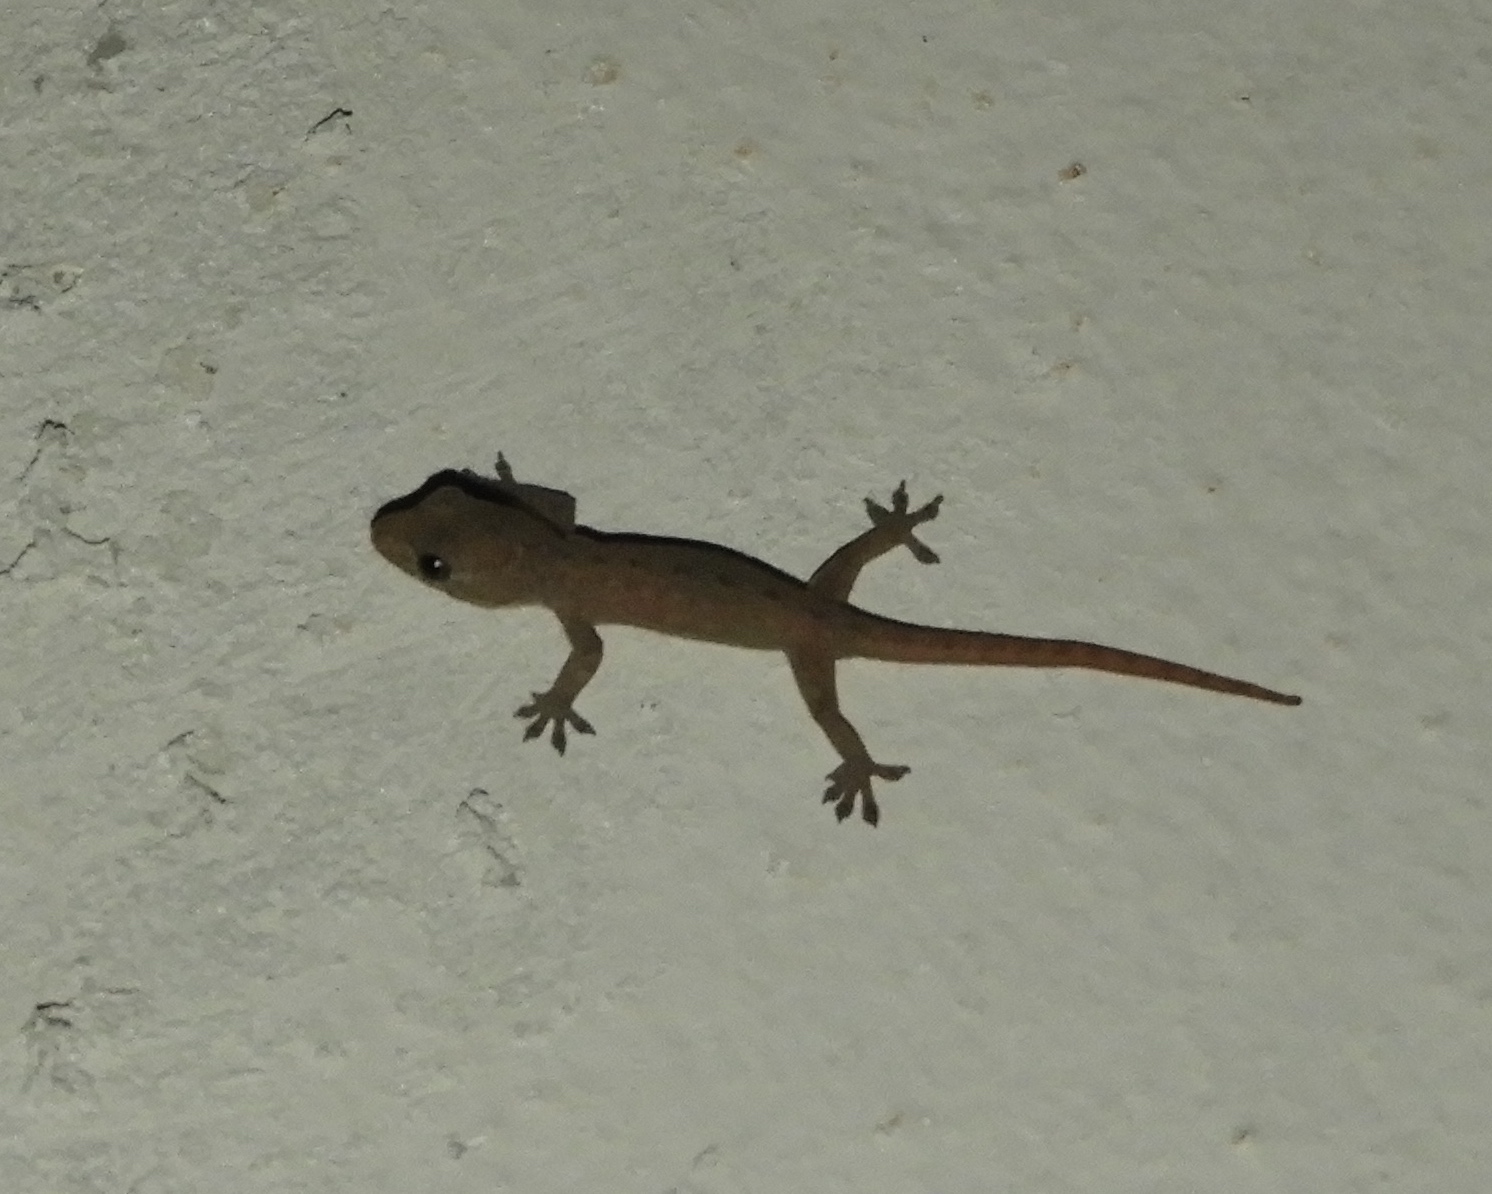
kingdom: Animalia
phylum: Chordata
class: Squamata
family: Gekkonidae
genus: Hemidactylus
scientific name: Hemidactylus frenatus
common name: Common house gecko
